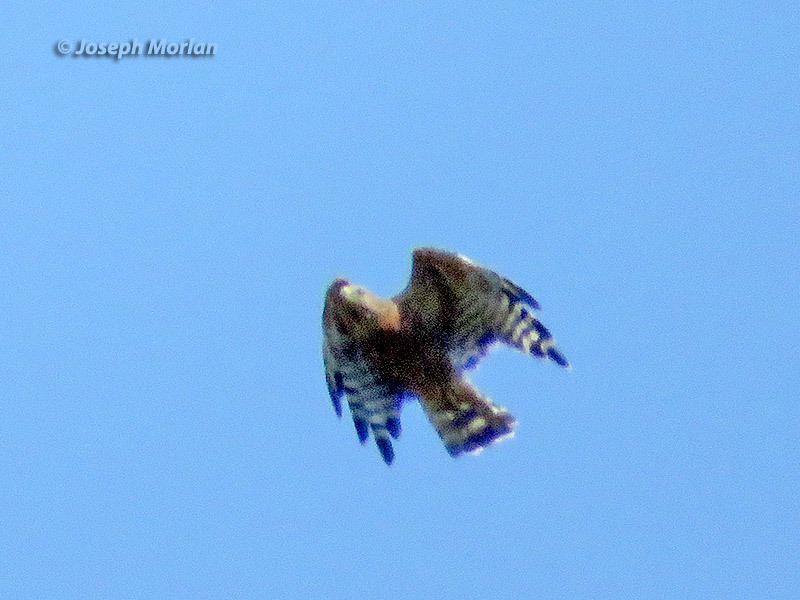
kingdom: Animalia
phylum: Chordata
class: Aves
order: Accipitriformes
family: Accipitridae
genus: Buteo
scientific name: Buteo lineatus
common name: Red-shouldered hawk
